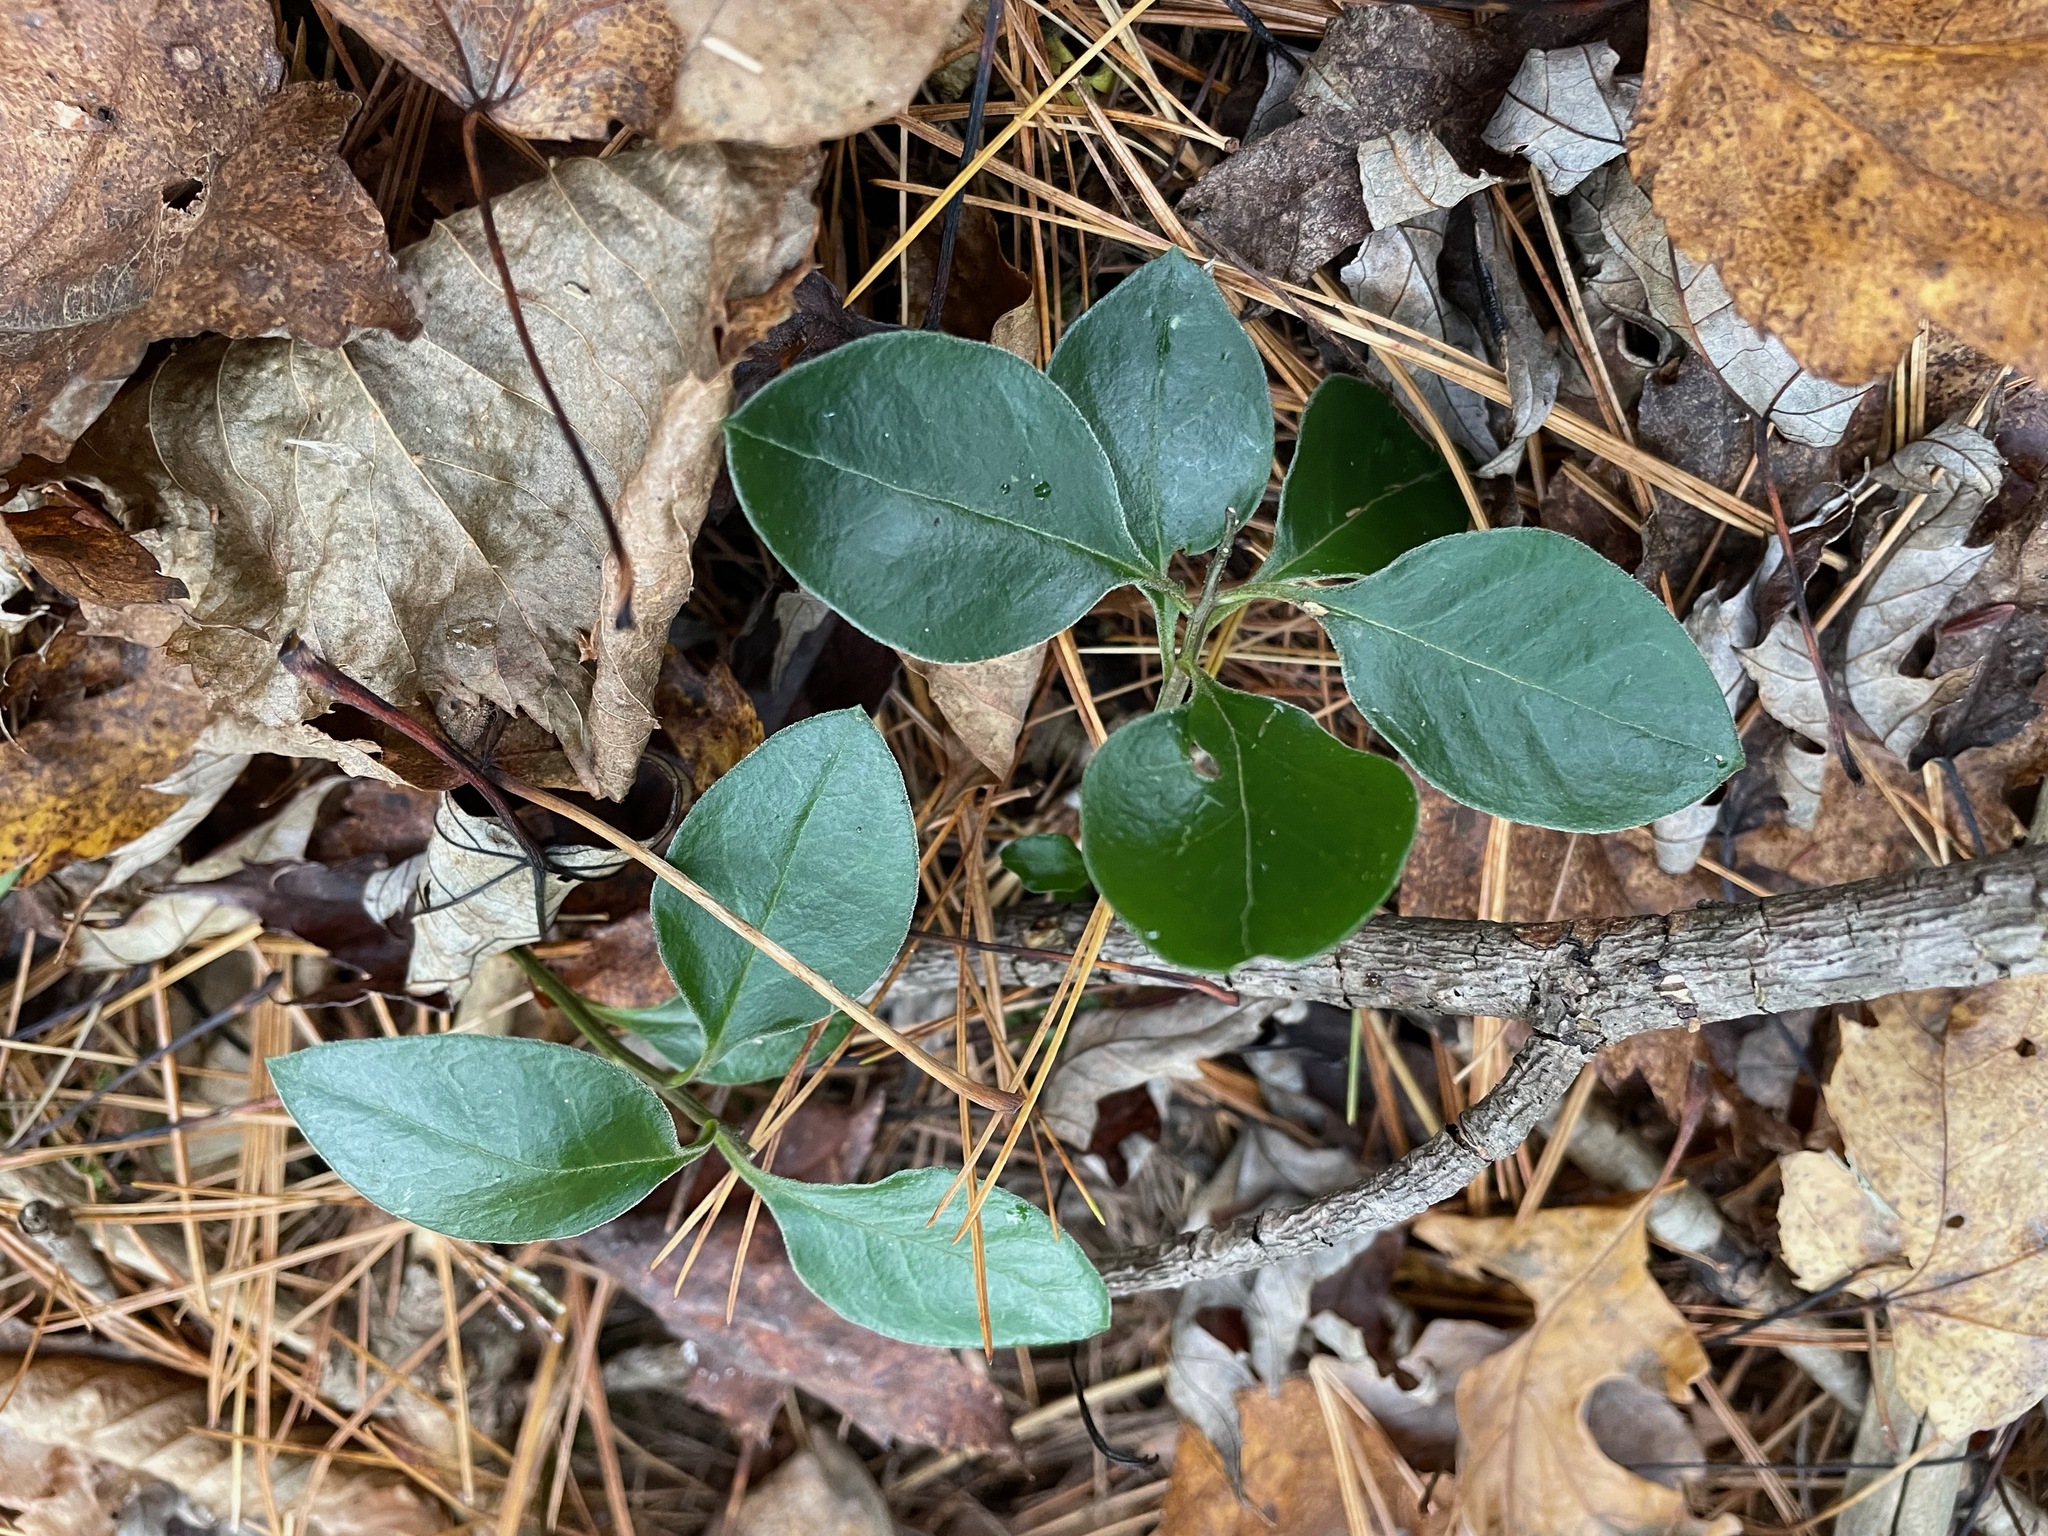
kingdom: Plantae
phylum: Tracheophyta
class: Magnoliopsida
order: Fabales
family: Polygalaceae
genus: Polygaloides
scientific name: Polygaloides paucifolia
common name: Bird-on-the-wing
